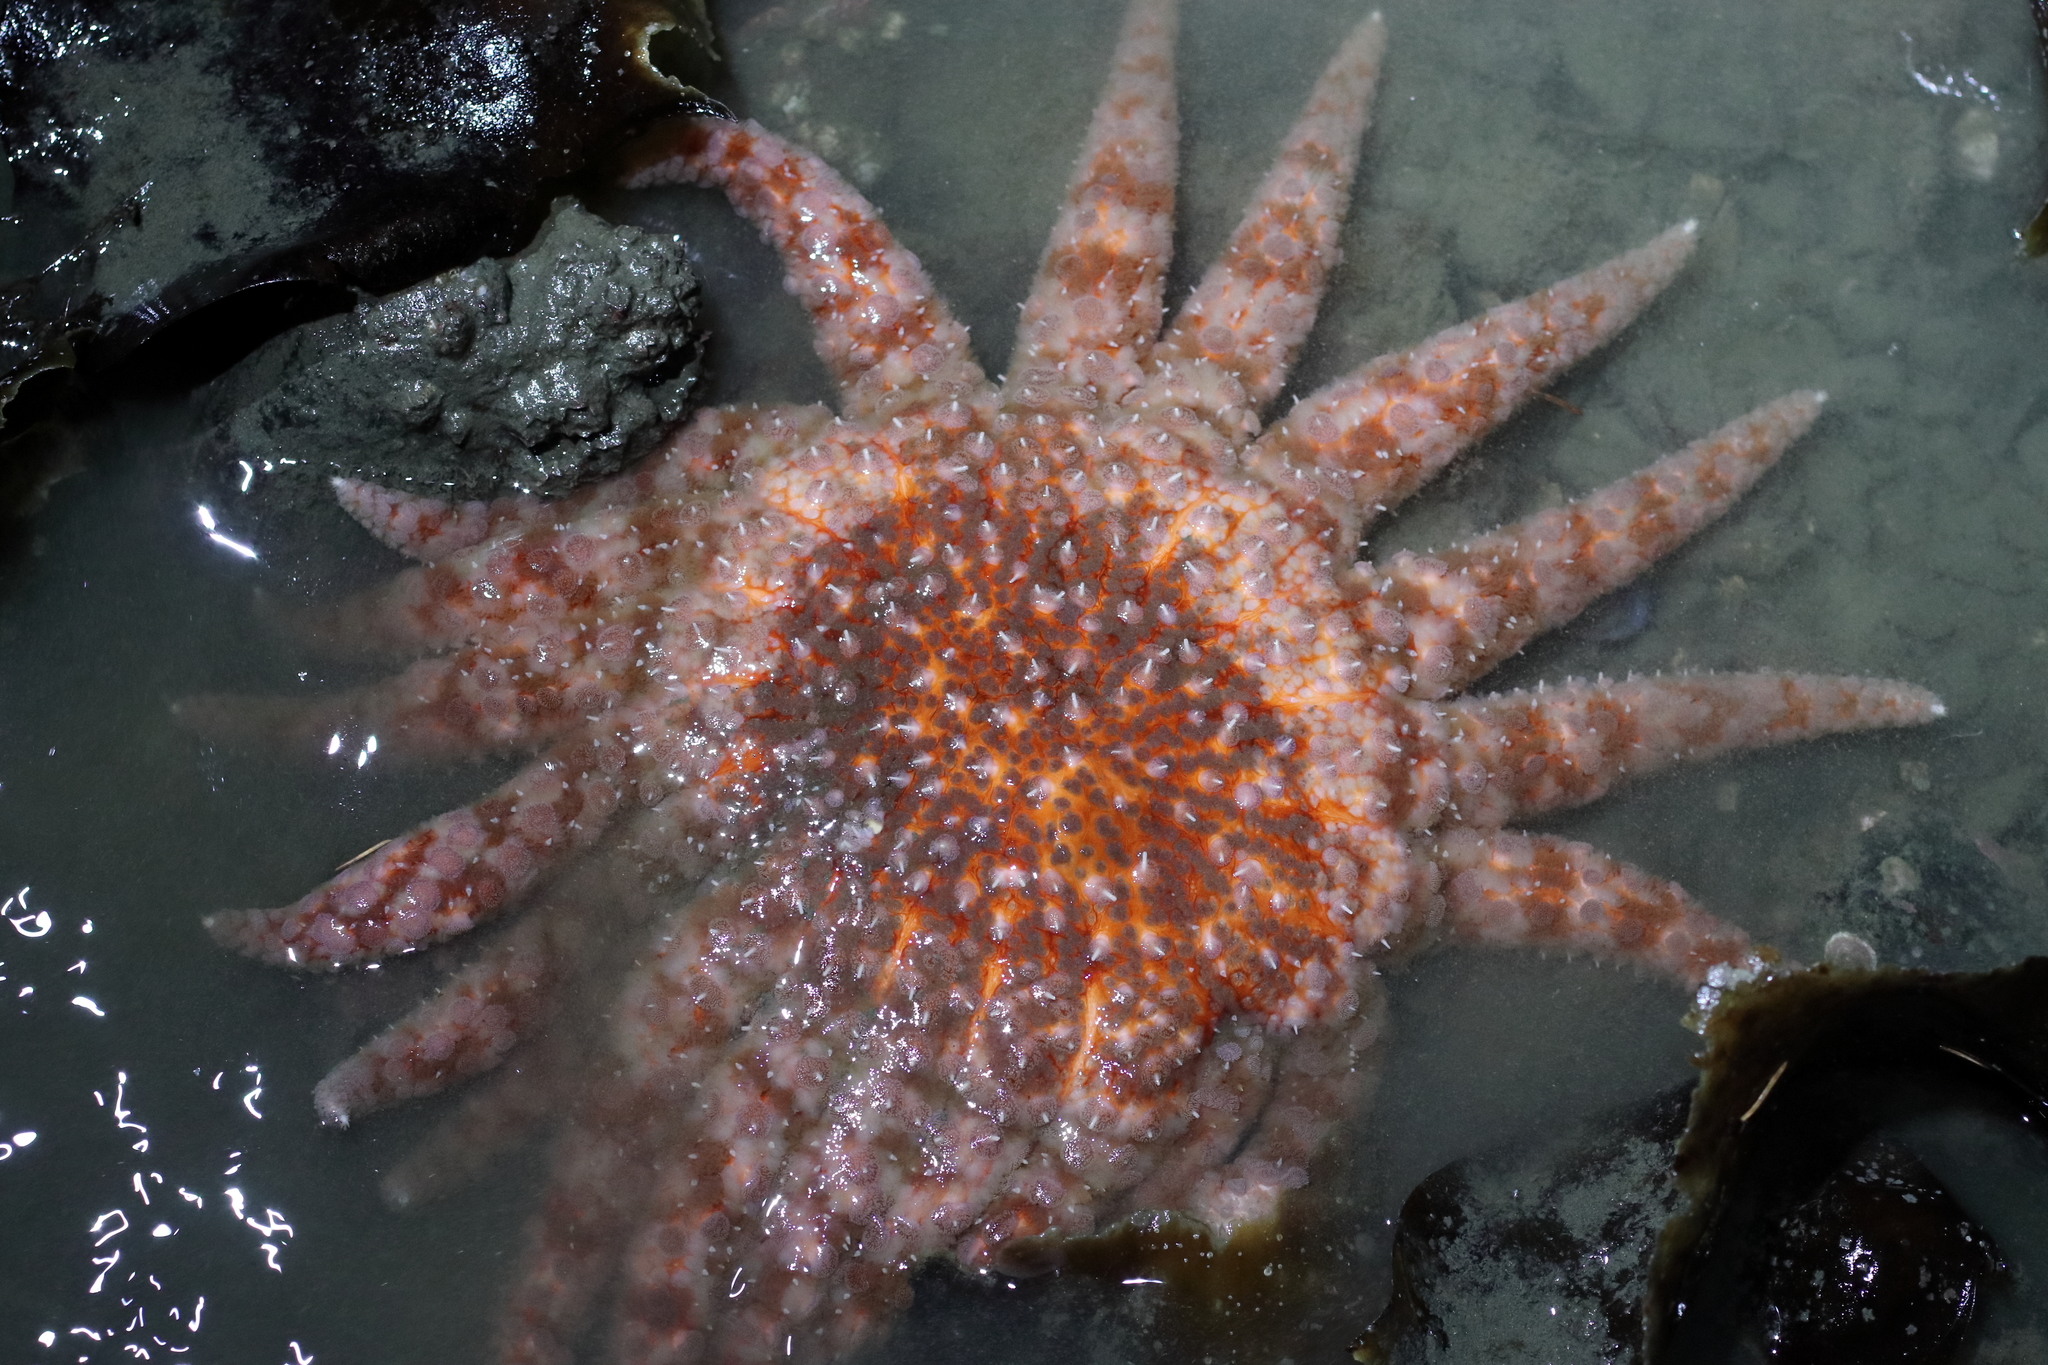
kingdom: Animalia
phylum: Echinodermata
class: Asteroidea
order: Forcipulatida
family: Asteriidae
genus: Pycnopodia
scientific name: Pycnopodia helianthoides
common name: Rag mop
